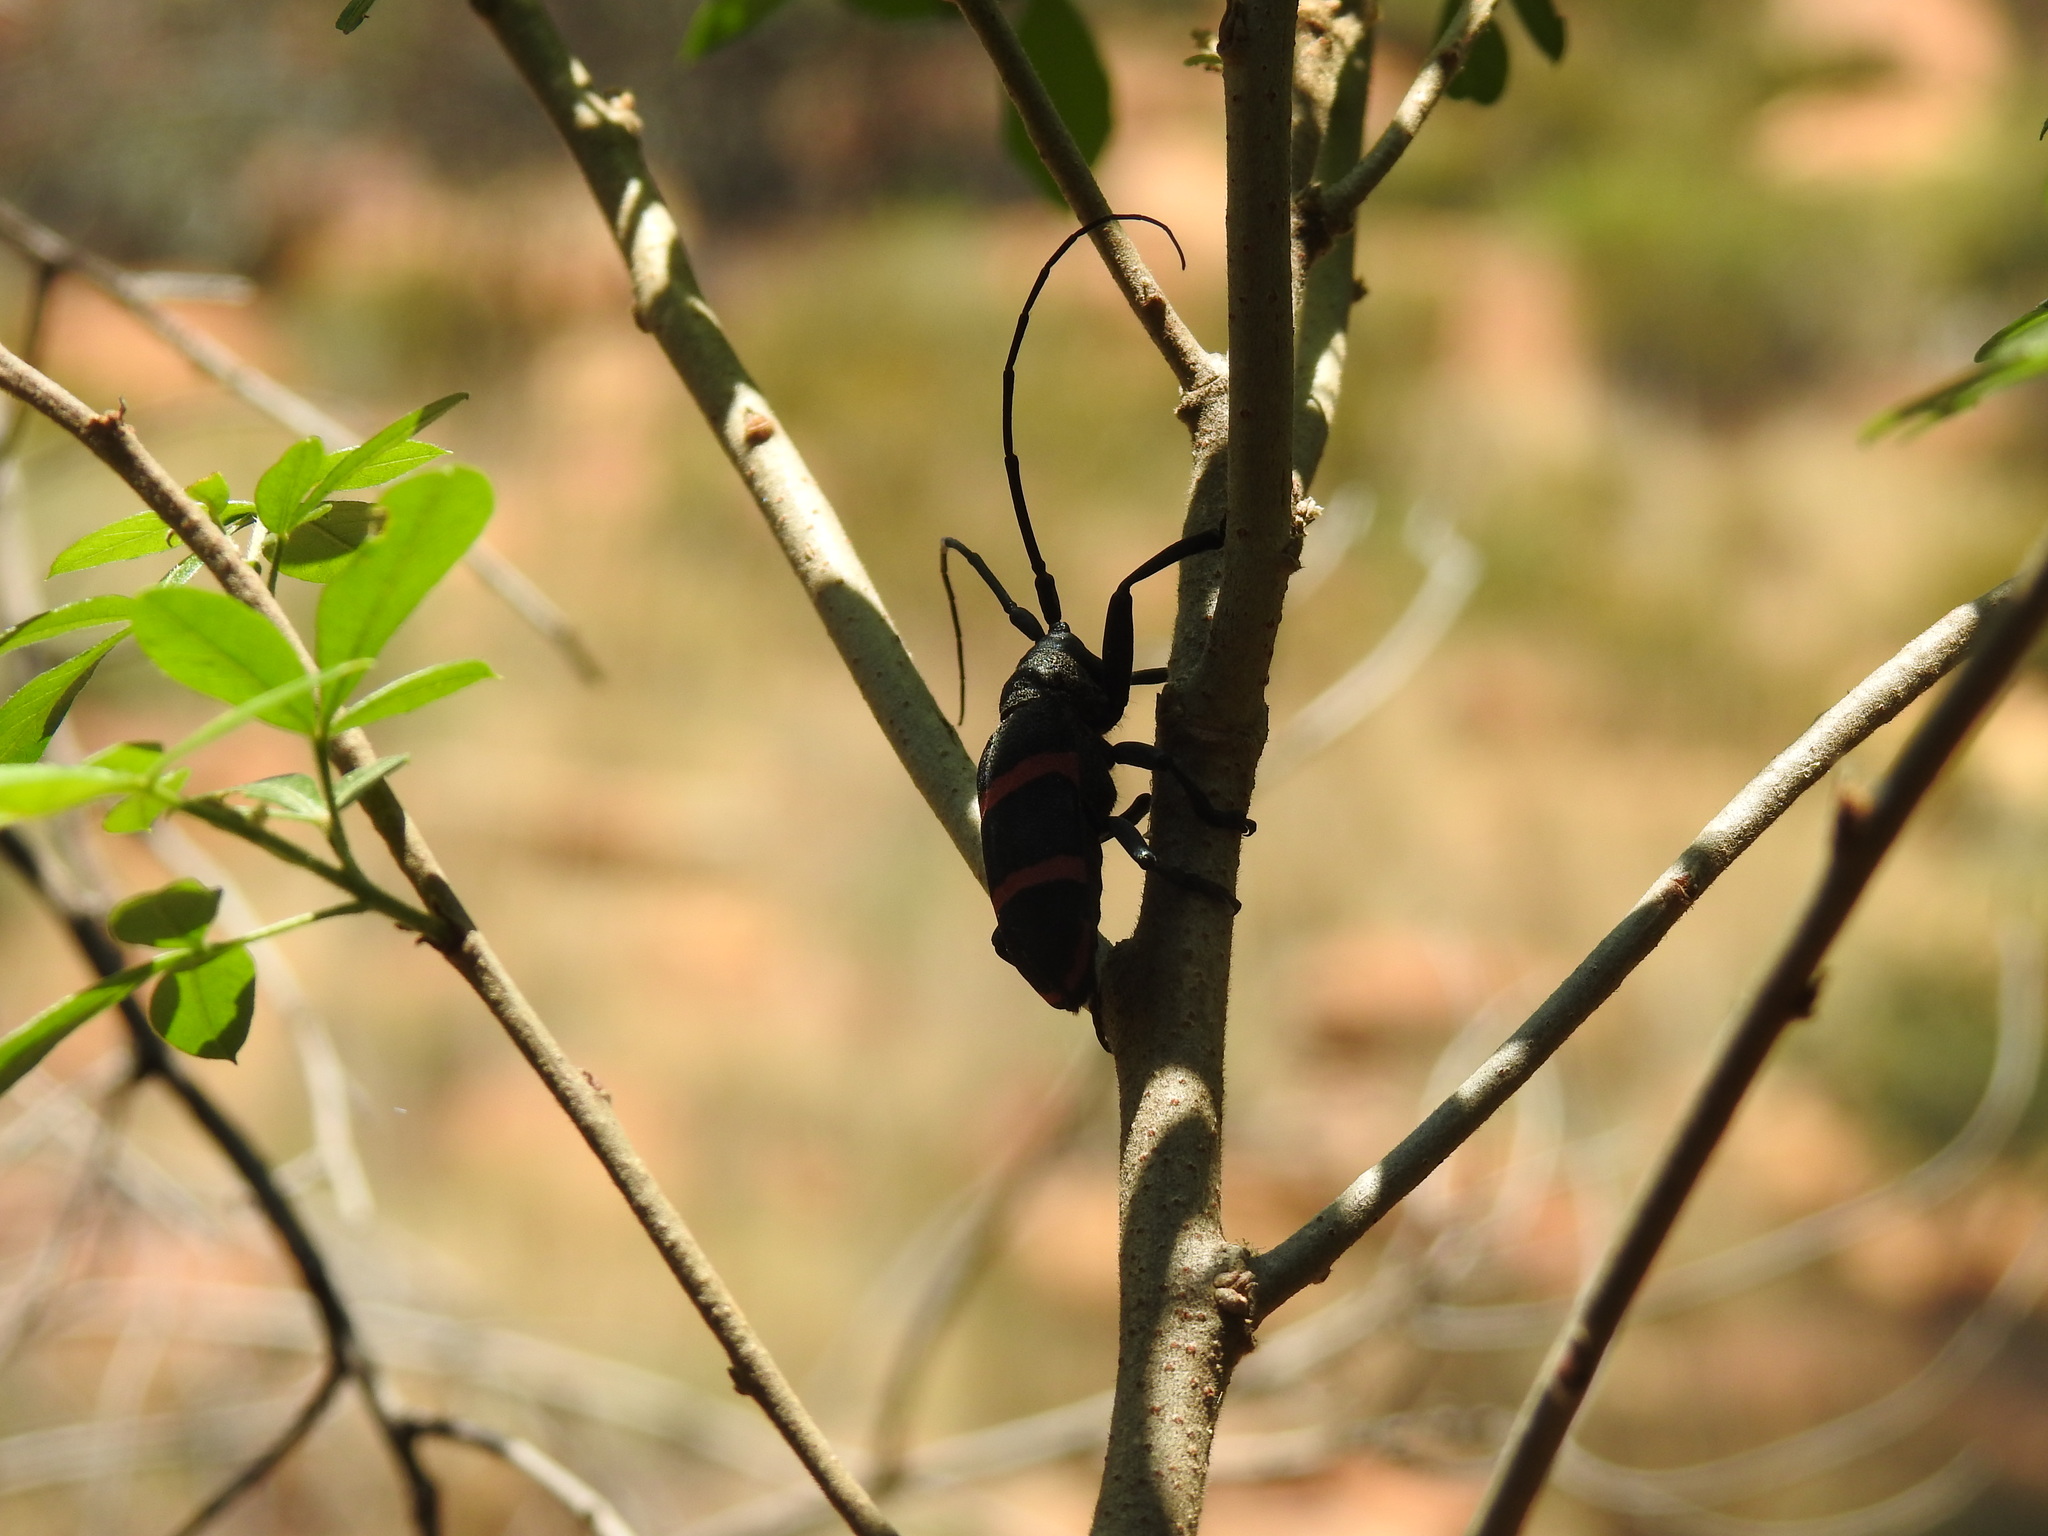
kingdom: Animalia
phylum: Arthropoda
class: Insecta
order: Coleoptera
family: Cerambycidae
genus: Ceroplesis
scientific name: Ceroplesis orientalis
